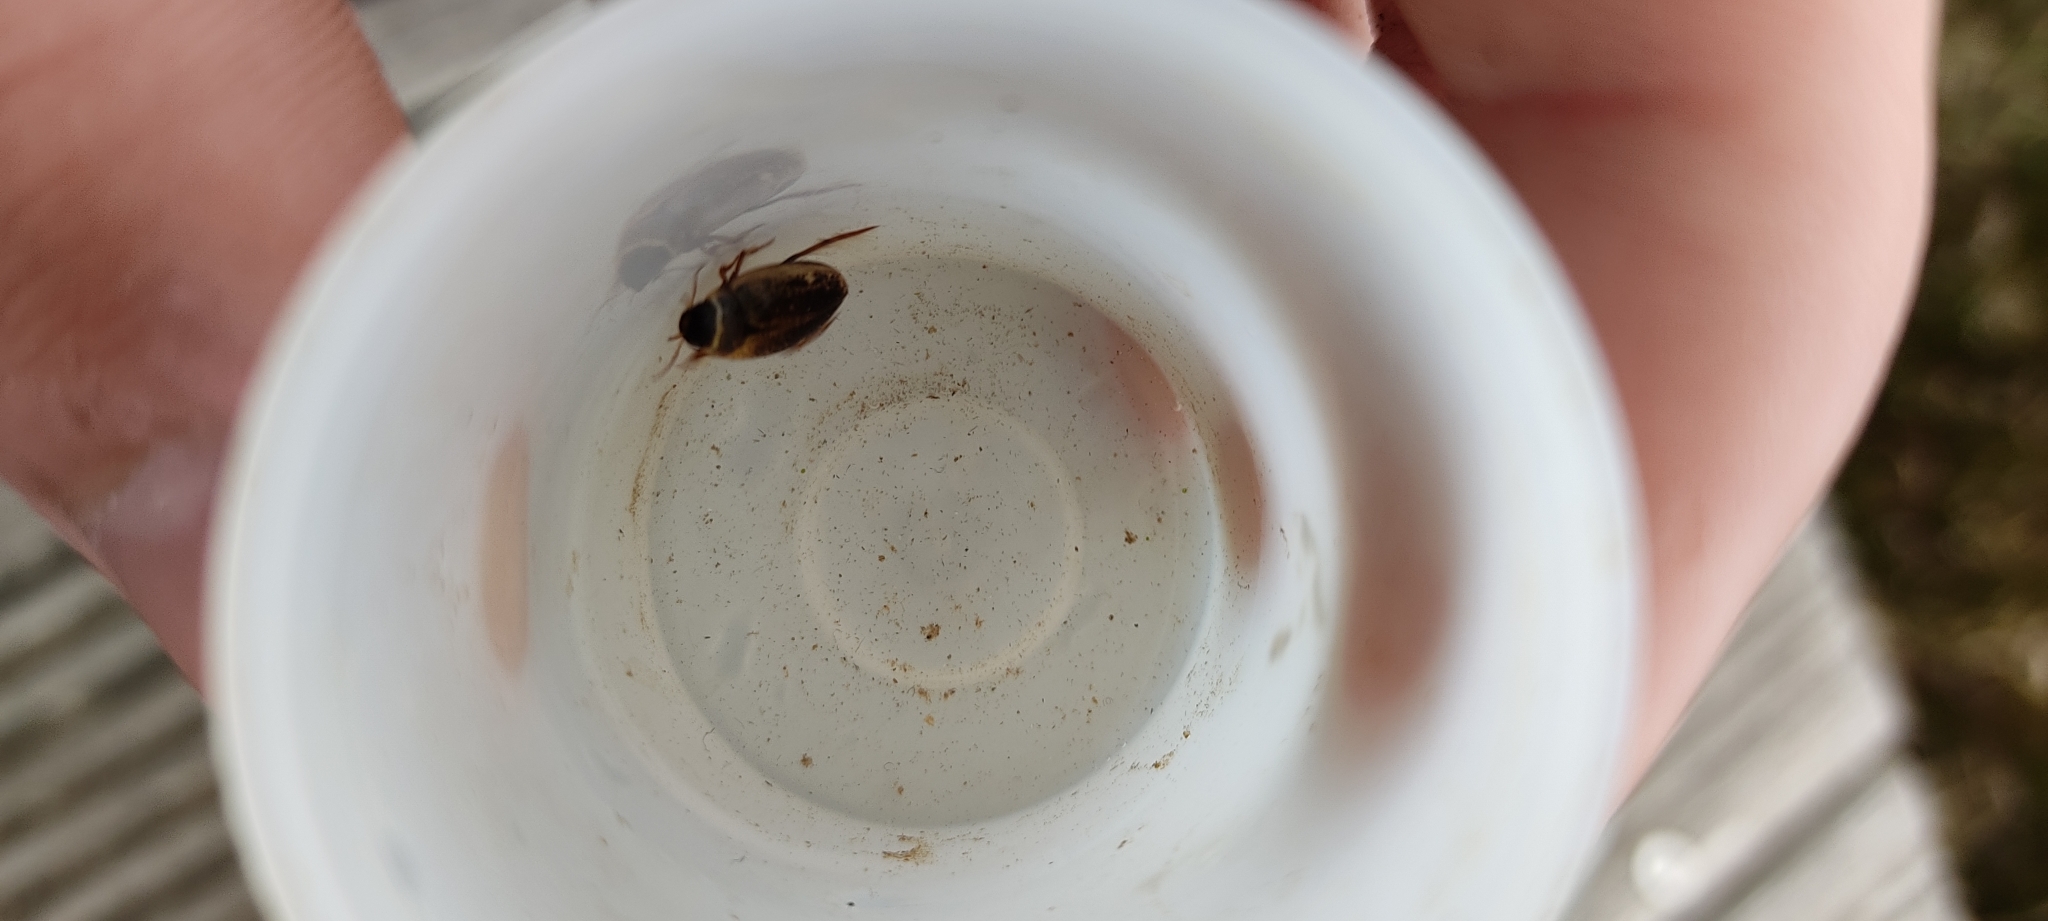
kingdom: Animalia
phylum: Arthropoda
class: Insecta
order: Coleoptera
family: Dytiscidae
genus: Agabus
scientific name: Agabus nebulosus
